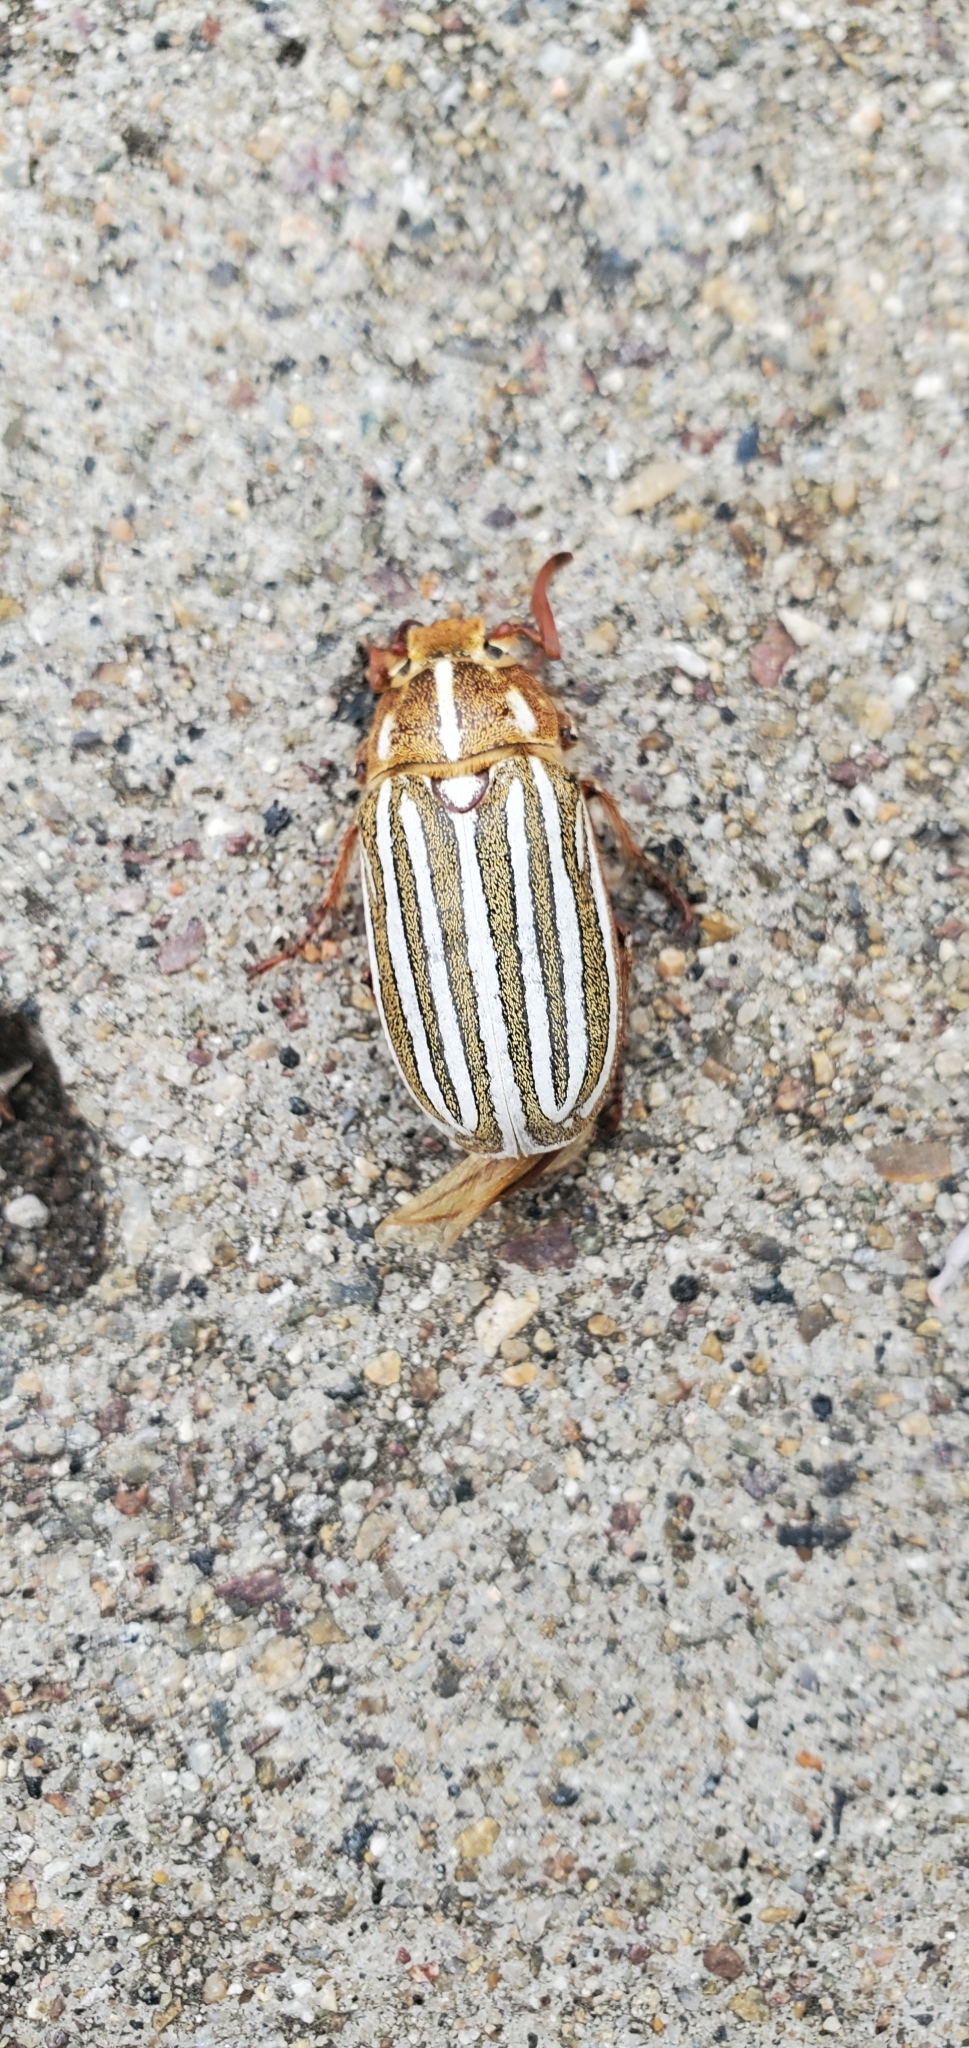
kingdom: Animalia
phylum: Arthropoda
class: Insecta
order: Coleoptera
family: Scarabaeidae
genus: Polyphylla
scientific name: Polyphylla decemlineata
